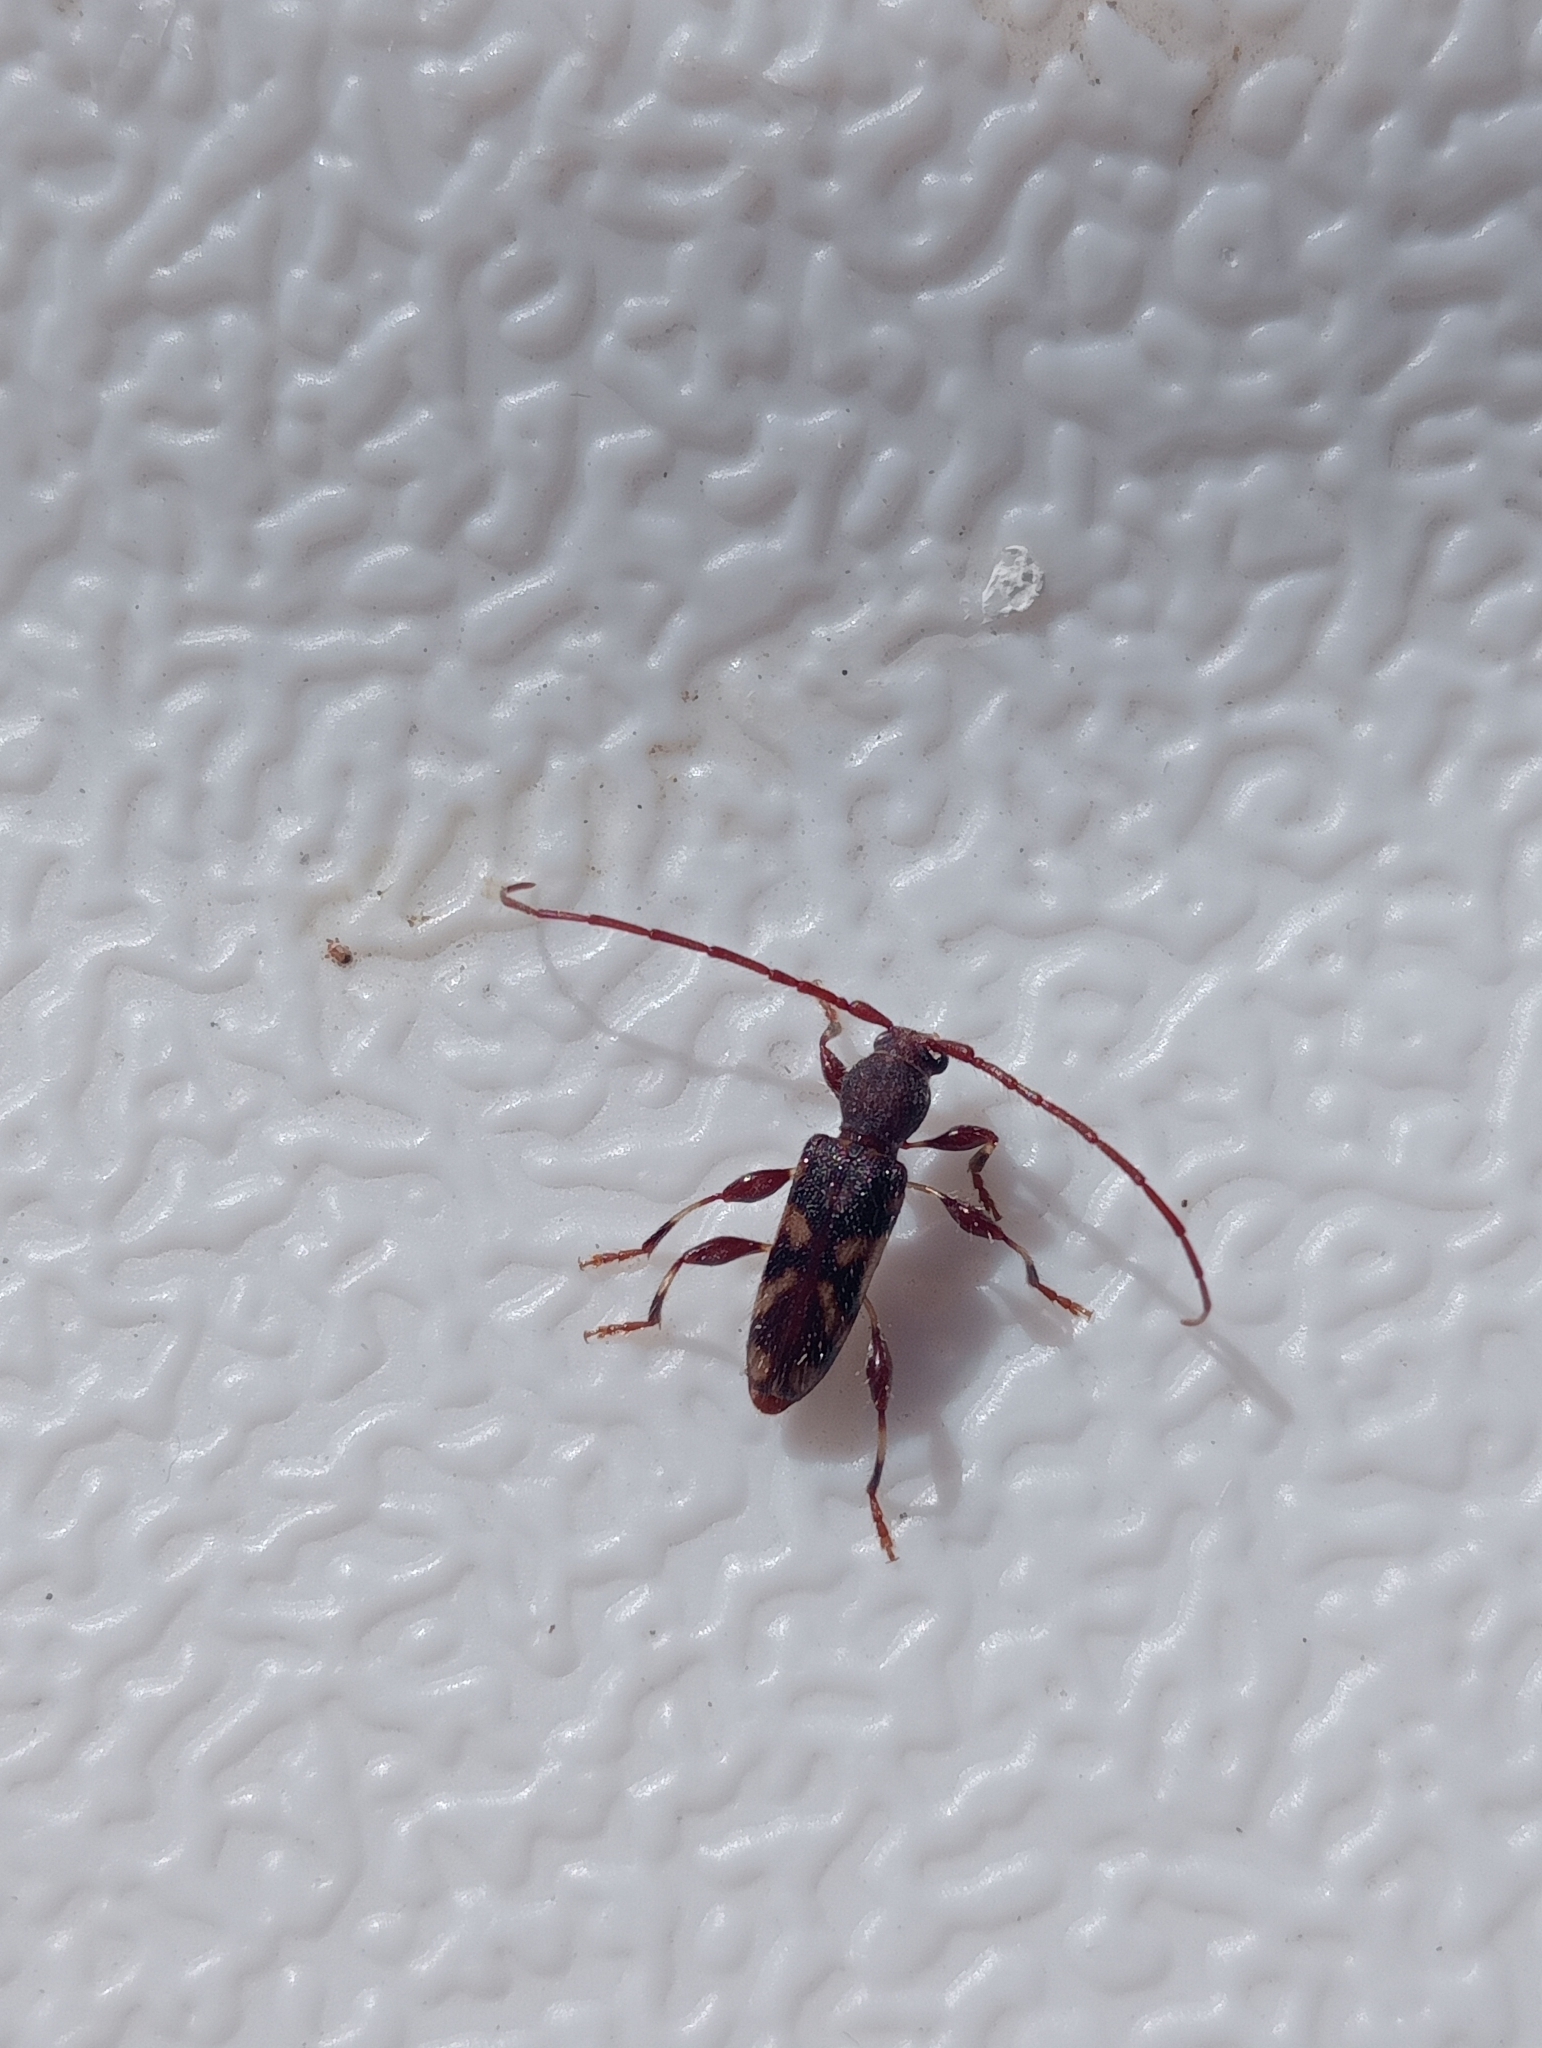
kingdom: Animalia
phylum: Arthropoda
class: Insecta
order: Coleoptera
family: Cerambycidae
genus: Bethelium
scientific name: Bethelium signiferum
